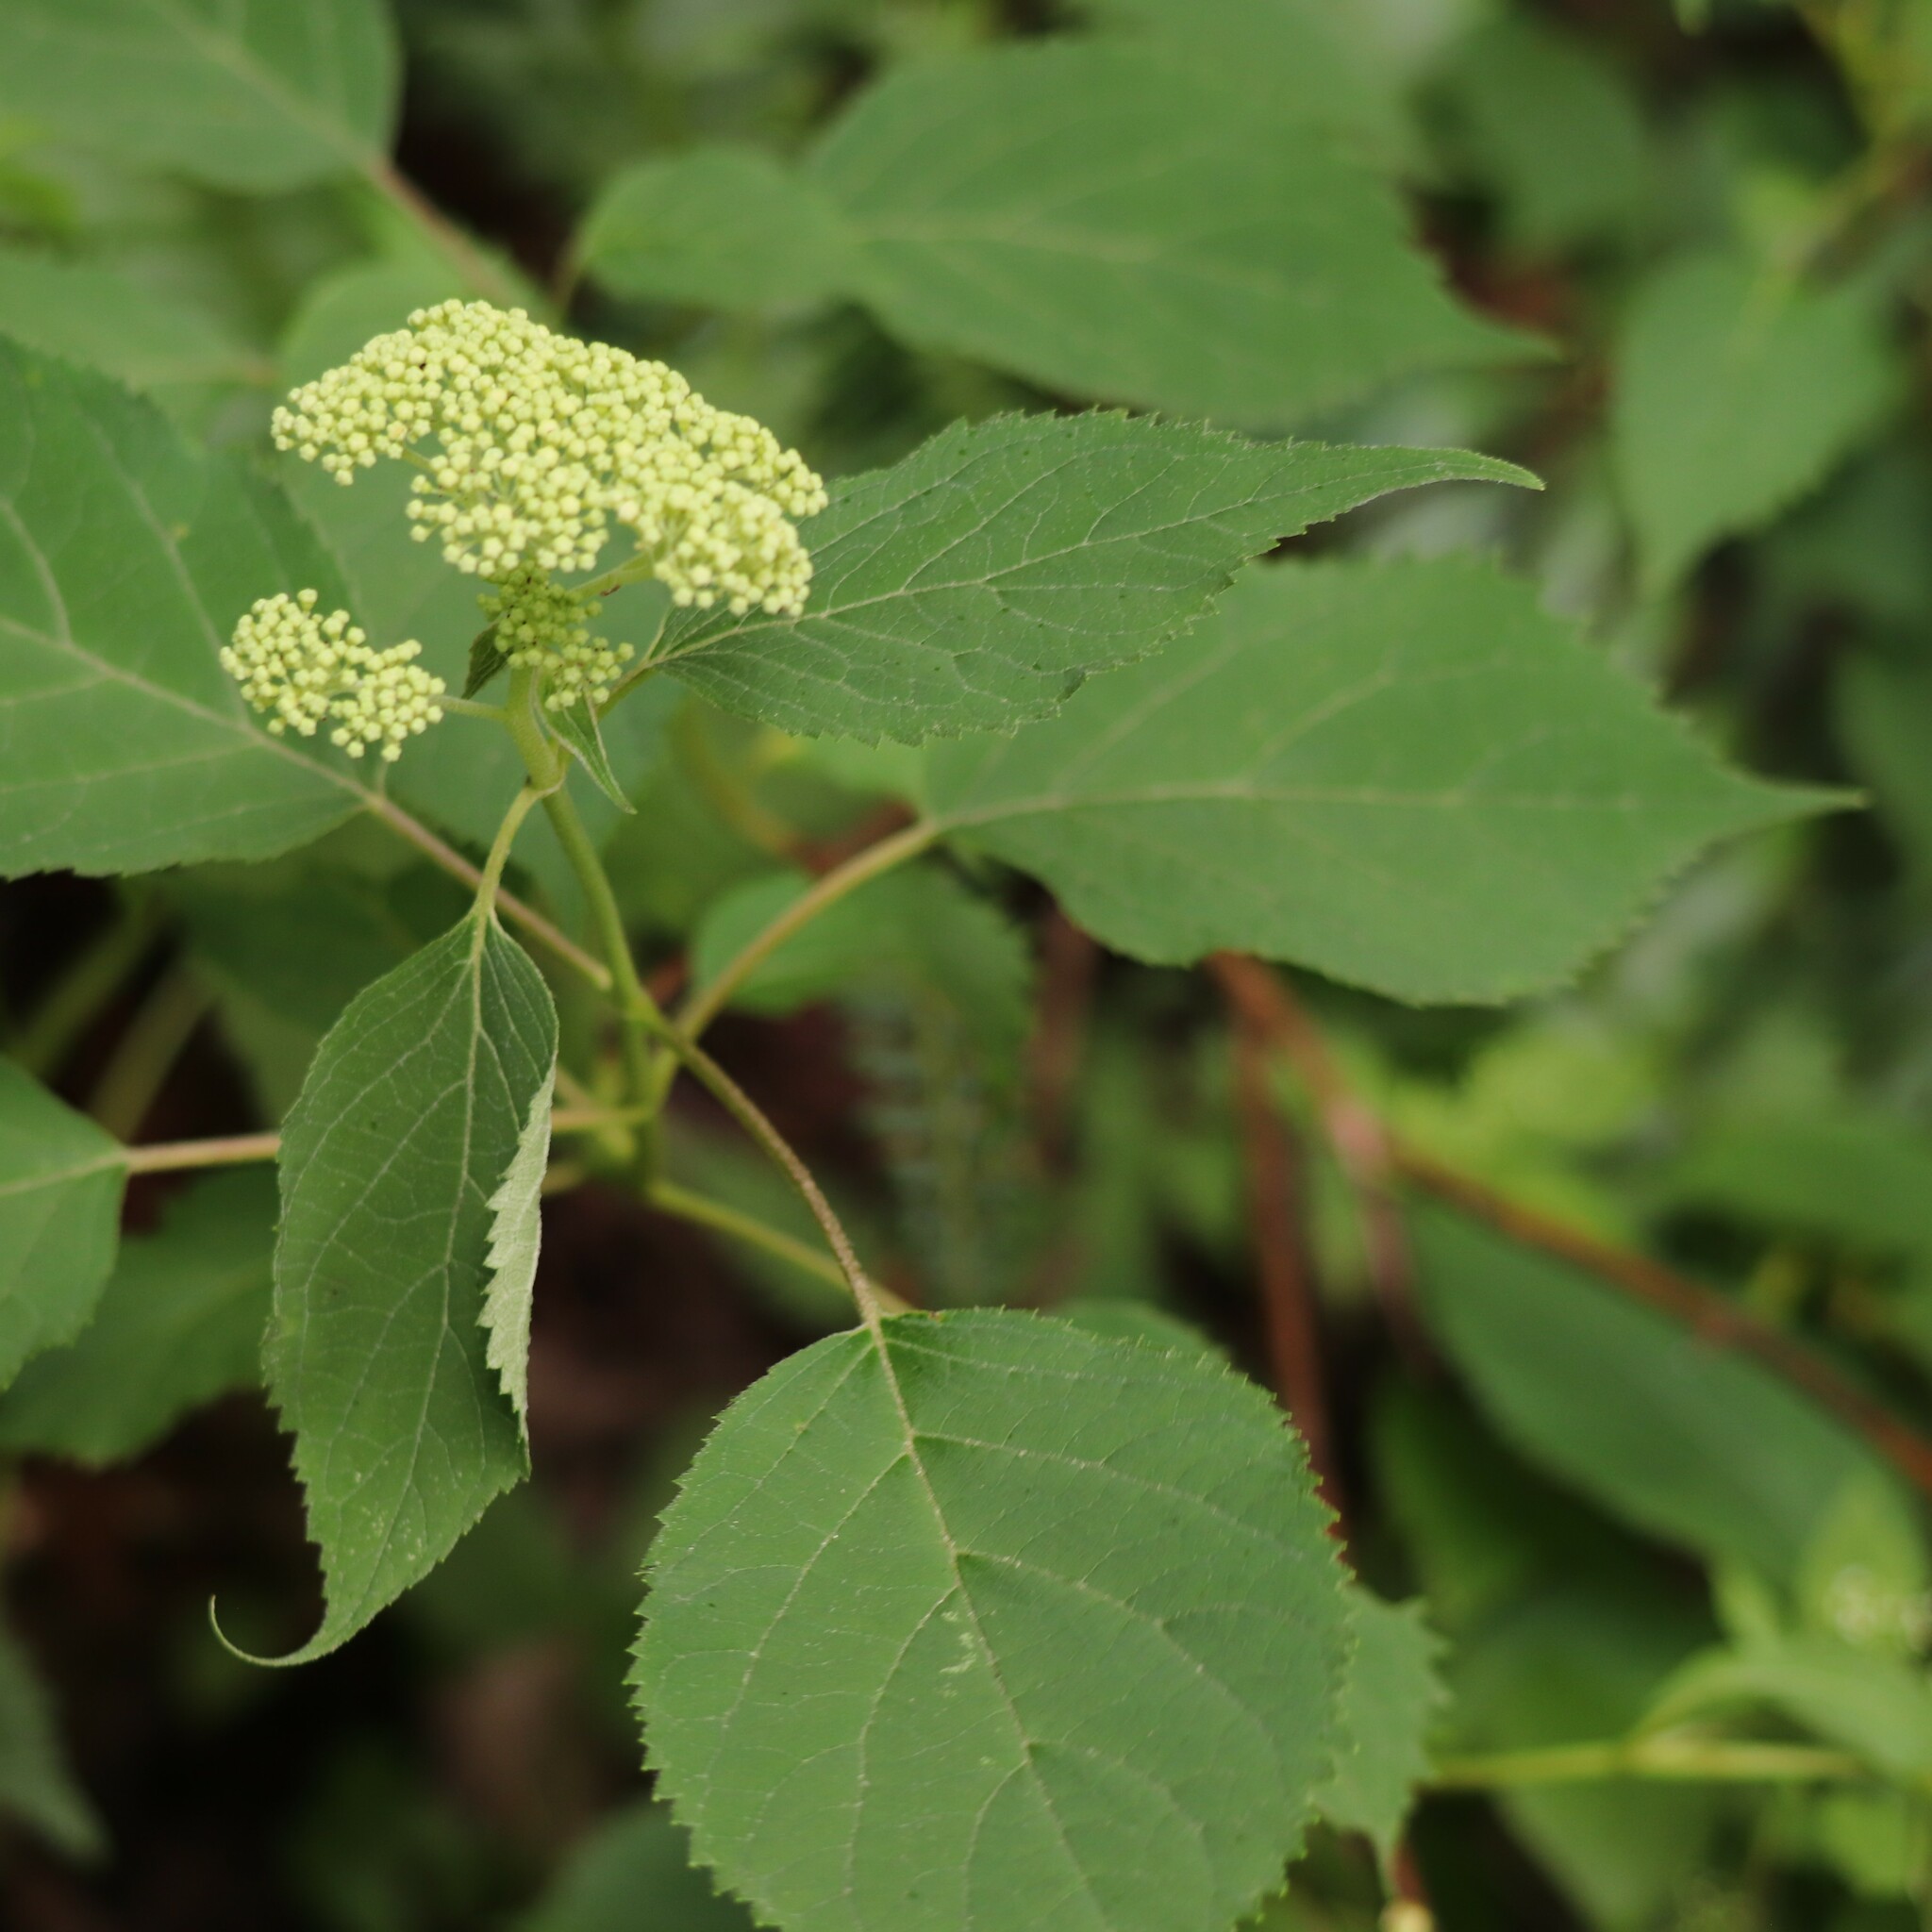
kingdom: Plantae
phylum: Tracheophyta
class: Magnoliopsida
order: Cornales
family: Hydrangeaceae
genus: Hydrangea
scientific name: Hydrangea arborescens
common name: Sevenbark
